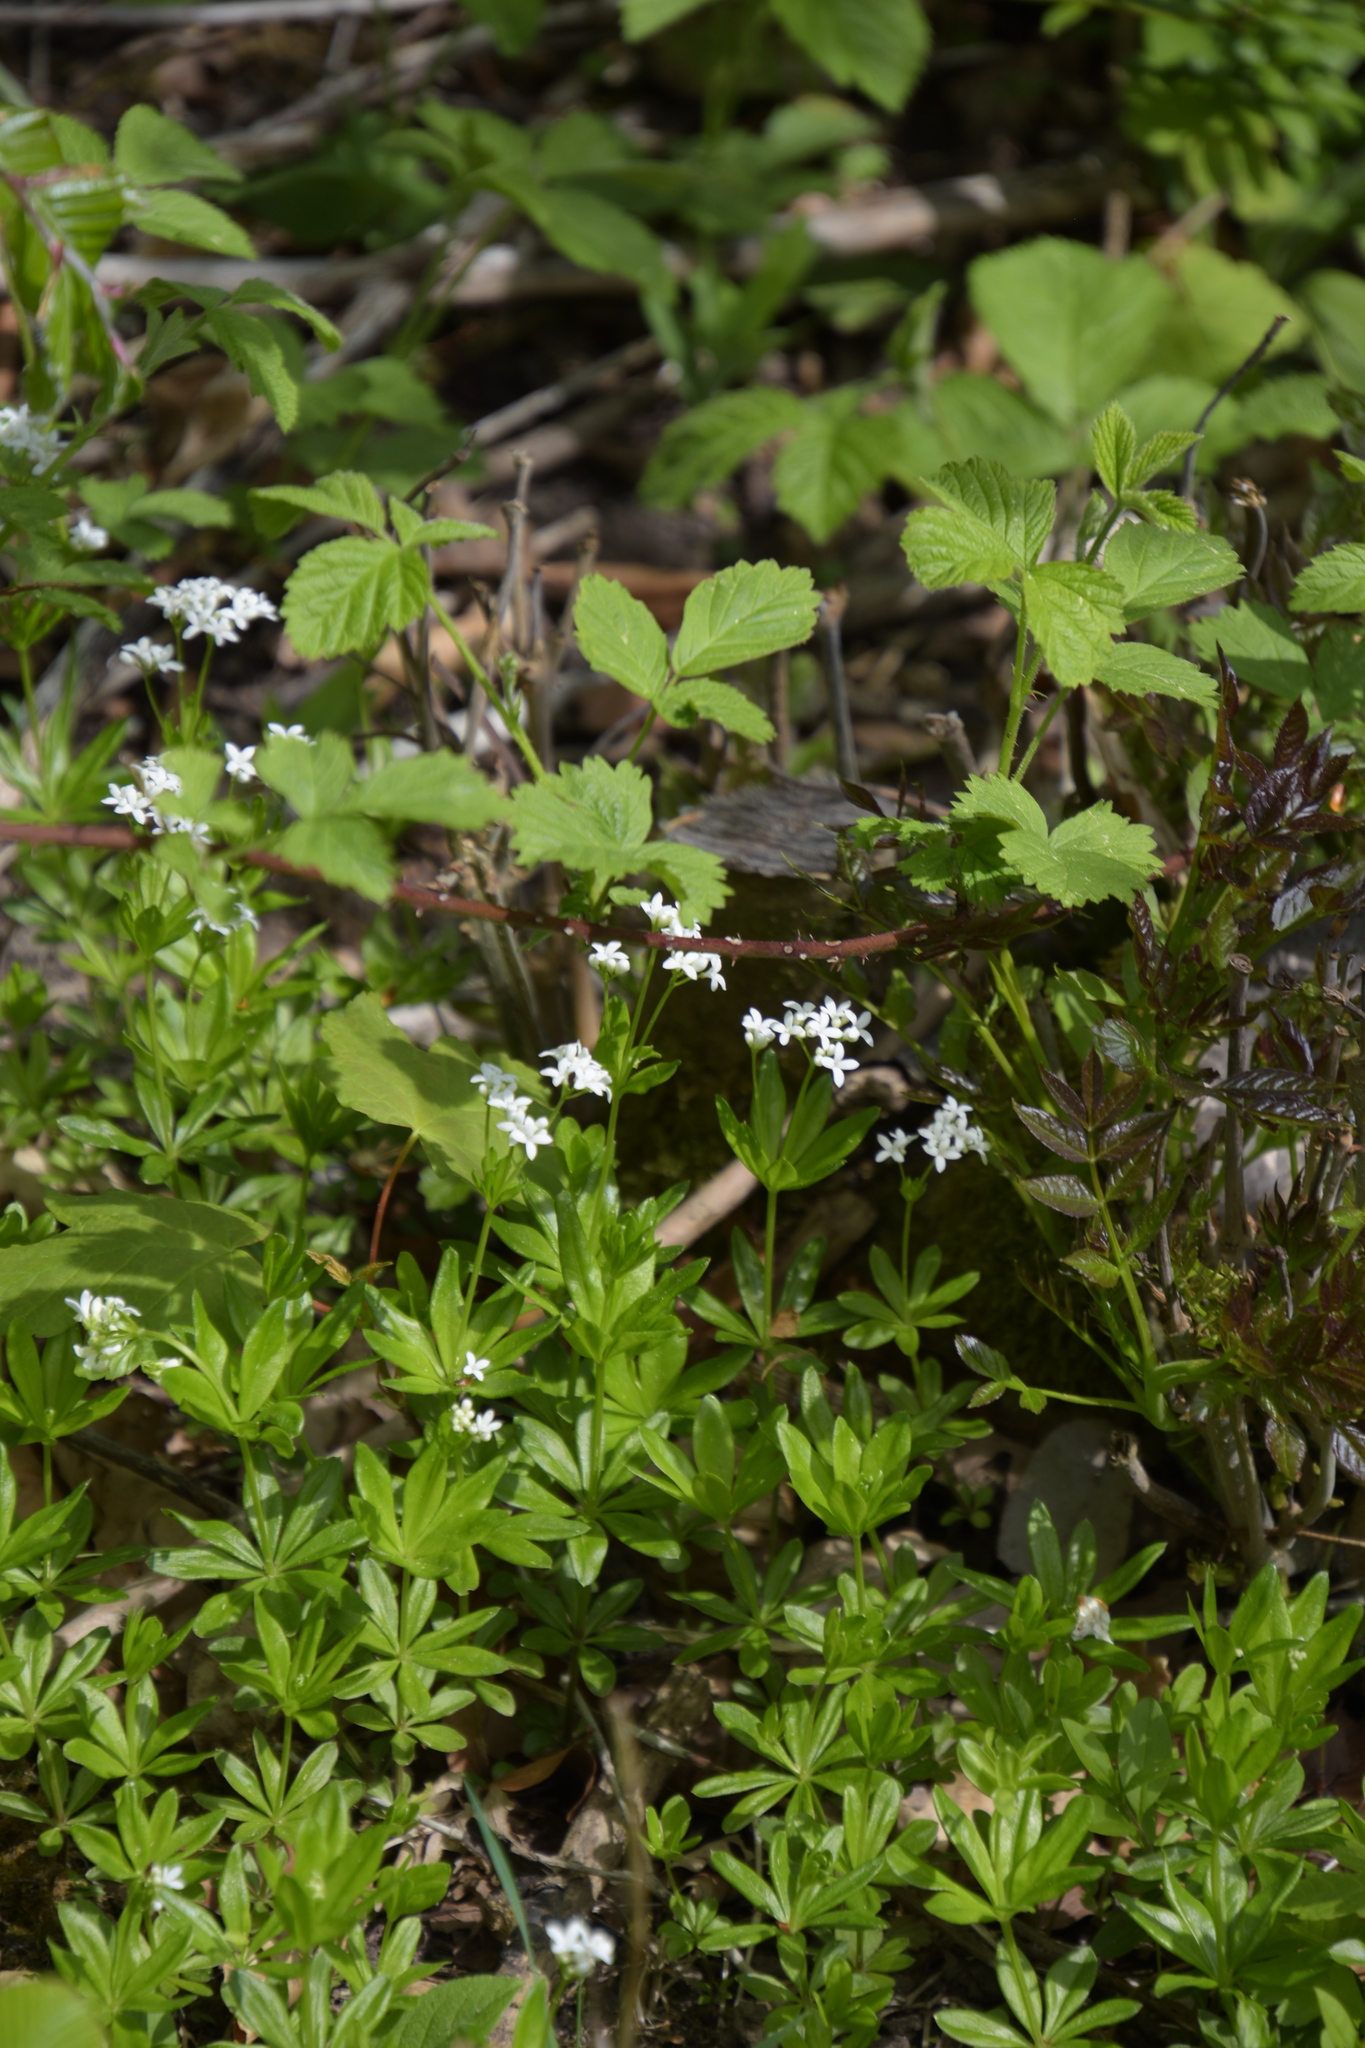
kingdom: Plantae
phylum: Tracheophyta
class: Magnoliopsida
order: Gentianales
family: Rubiaceae
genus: Galium
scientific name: Galium odoratum
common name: Sweet woodruff
